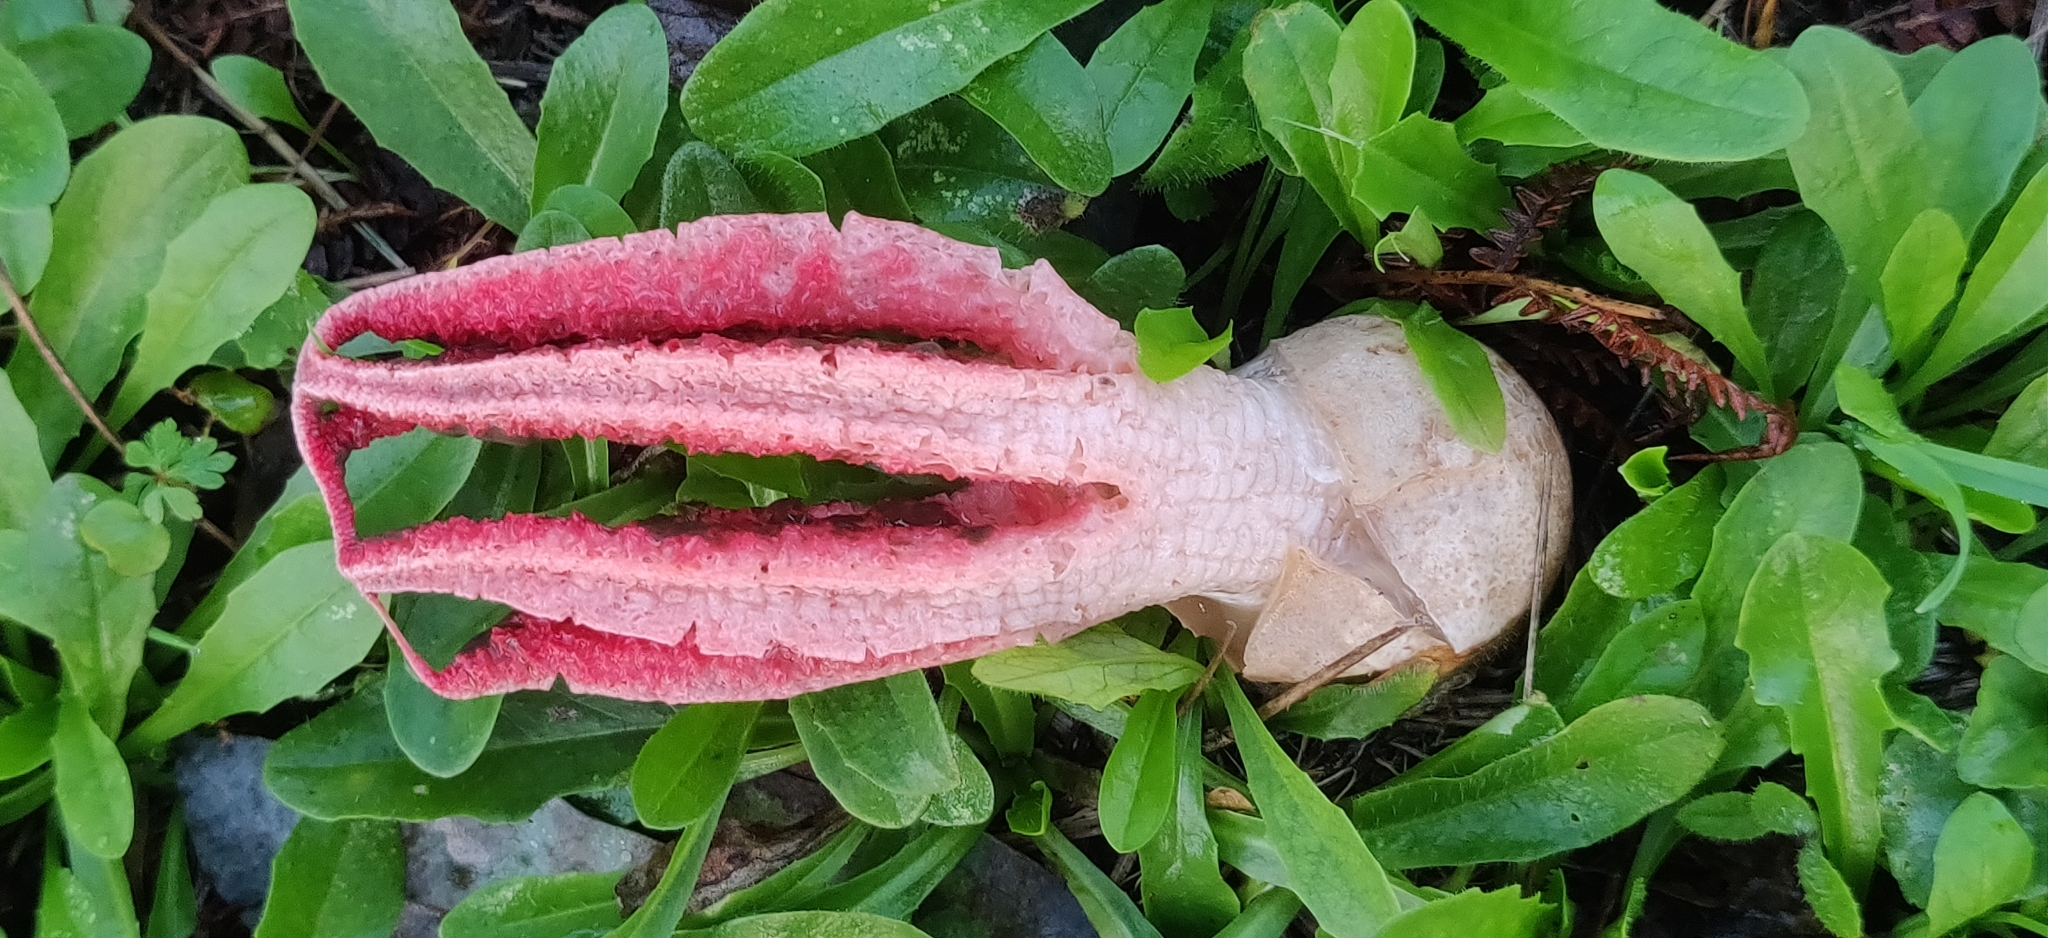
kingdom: Fungi
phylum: Basidiomycota
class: Agaricomycetes
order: Phallales
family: Phallaceae
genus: Clathrus
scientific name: Clathrus archeri
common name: Devil's fingers
